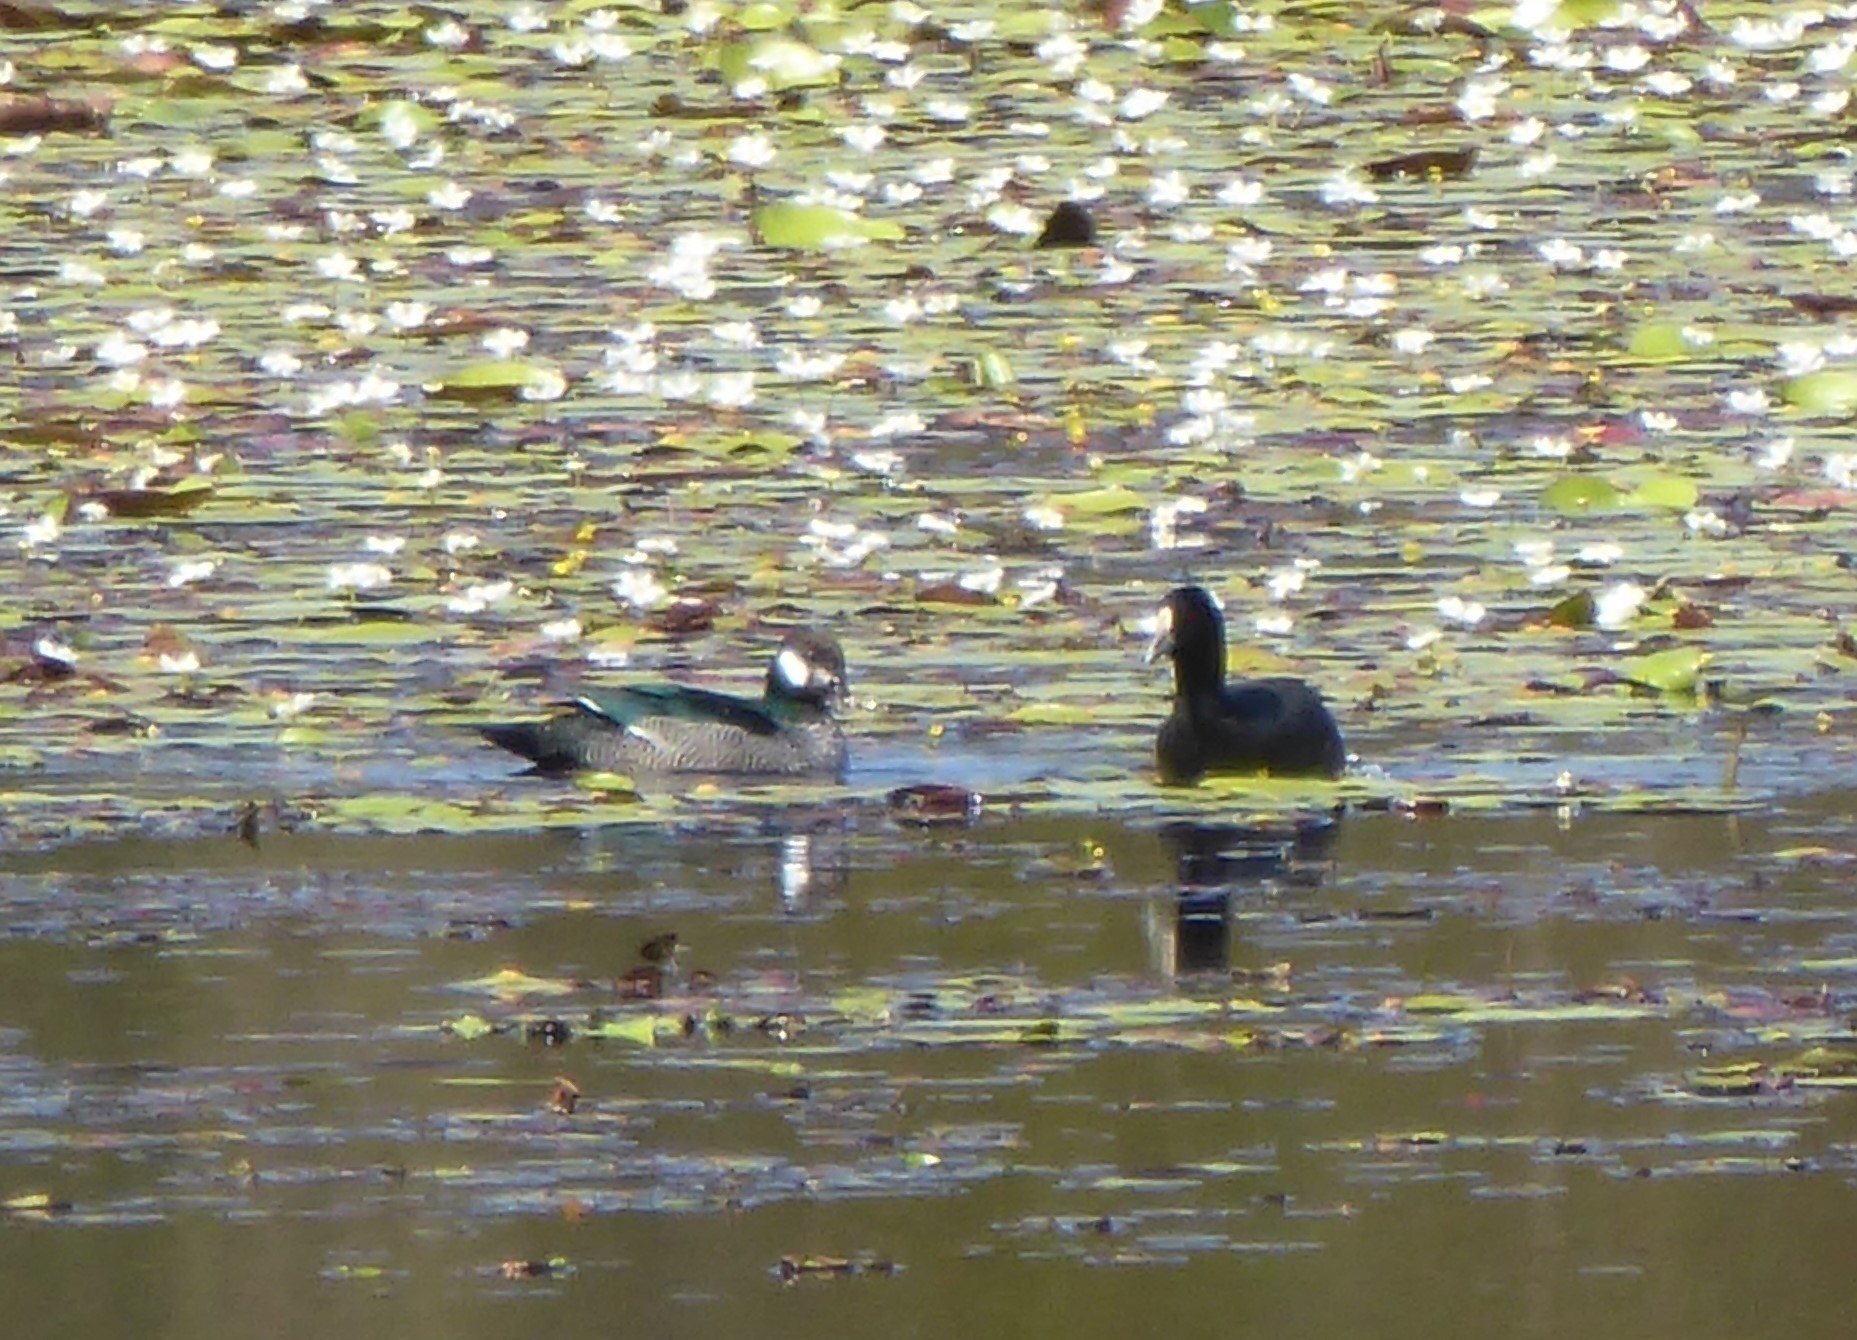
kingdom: Animalia
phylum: Chordata
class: Aves
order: Anseriformes
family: Anatidae
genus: Nettapus
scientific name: Nettapus pulchellus
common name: Green pygmy-goose
